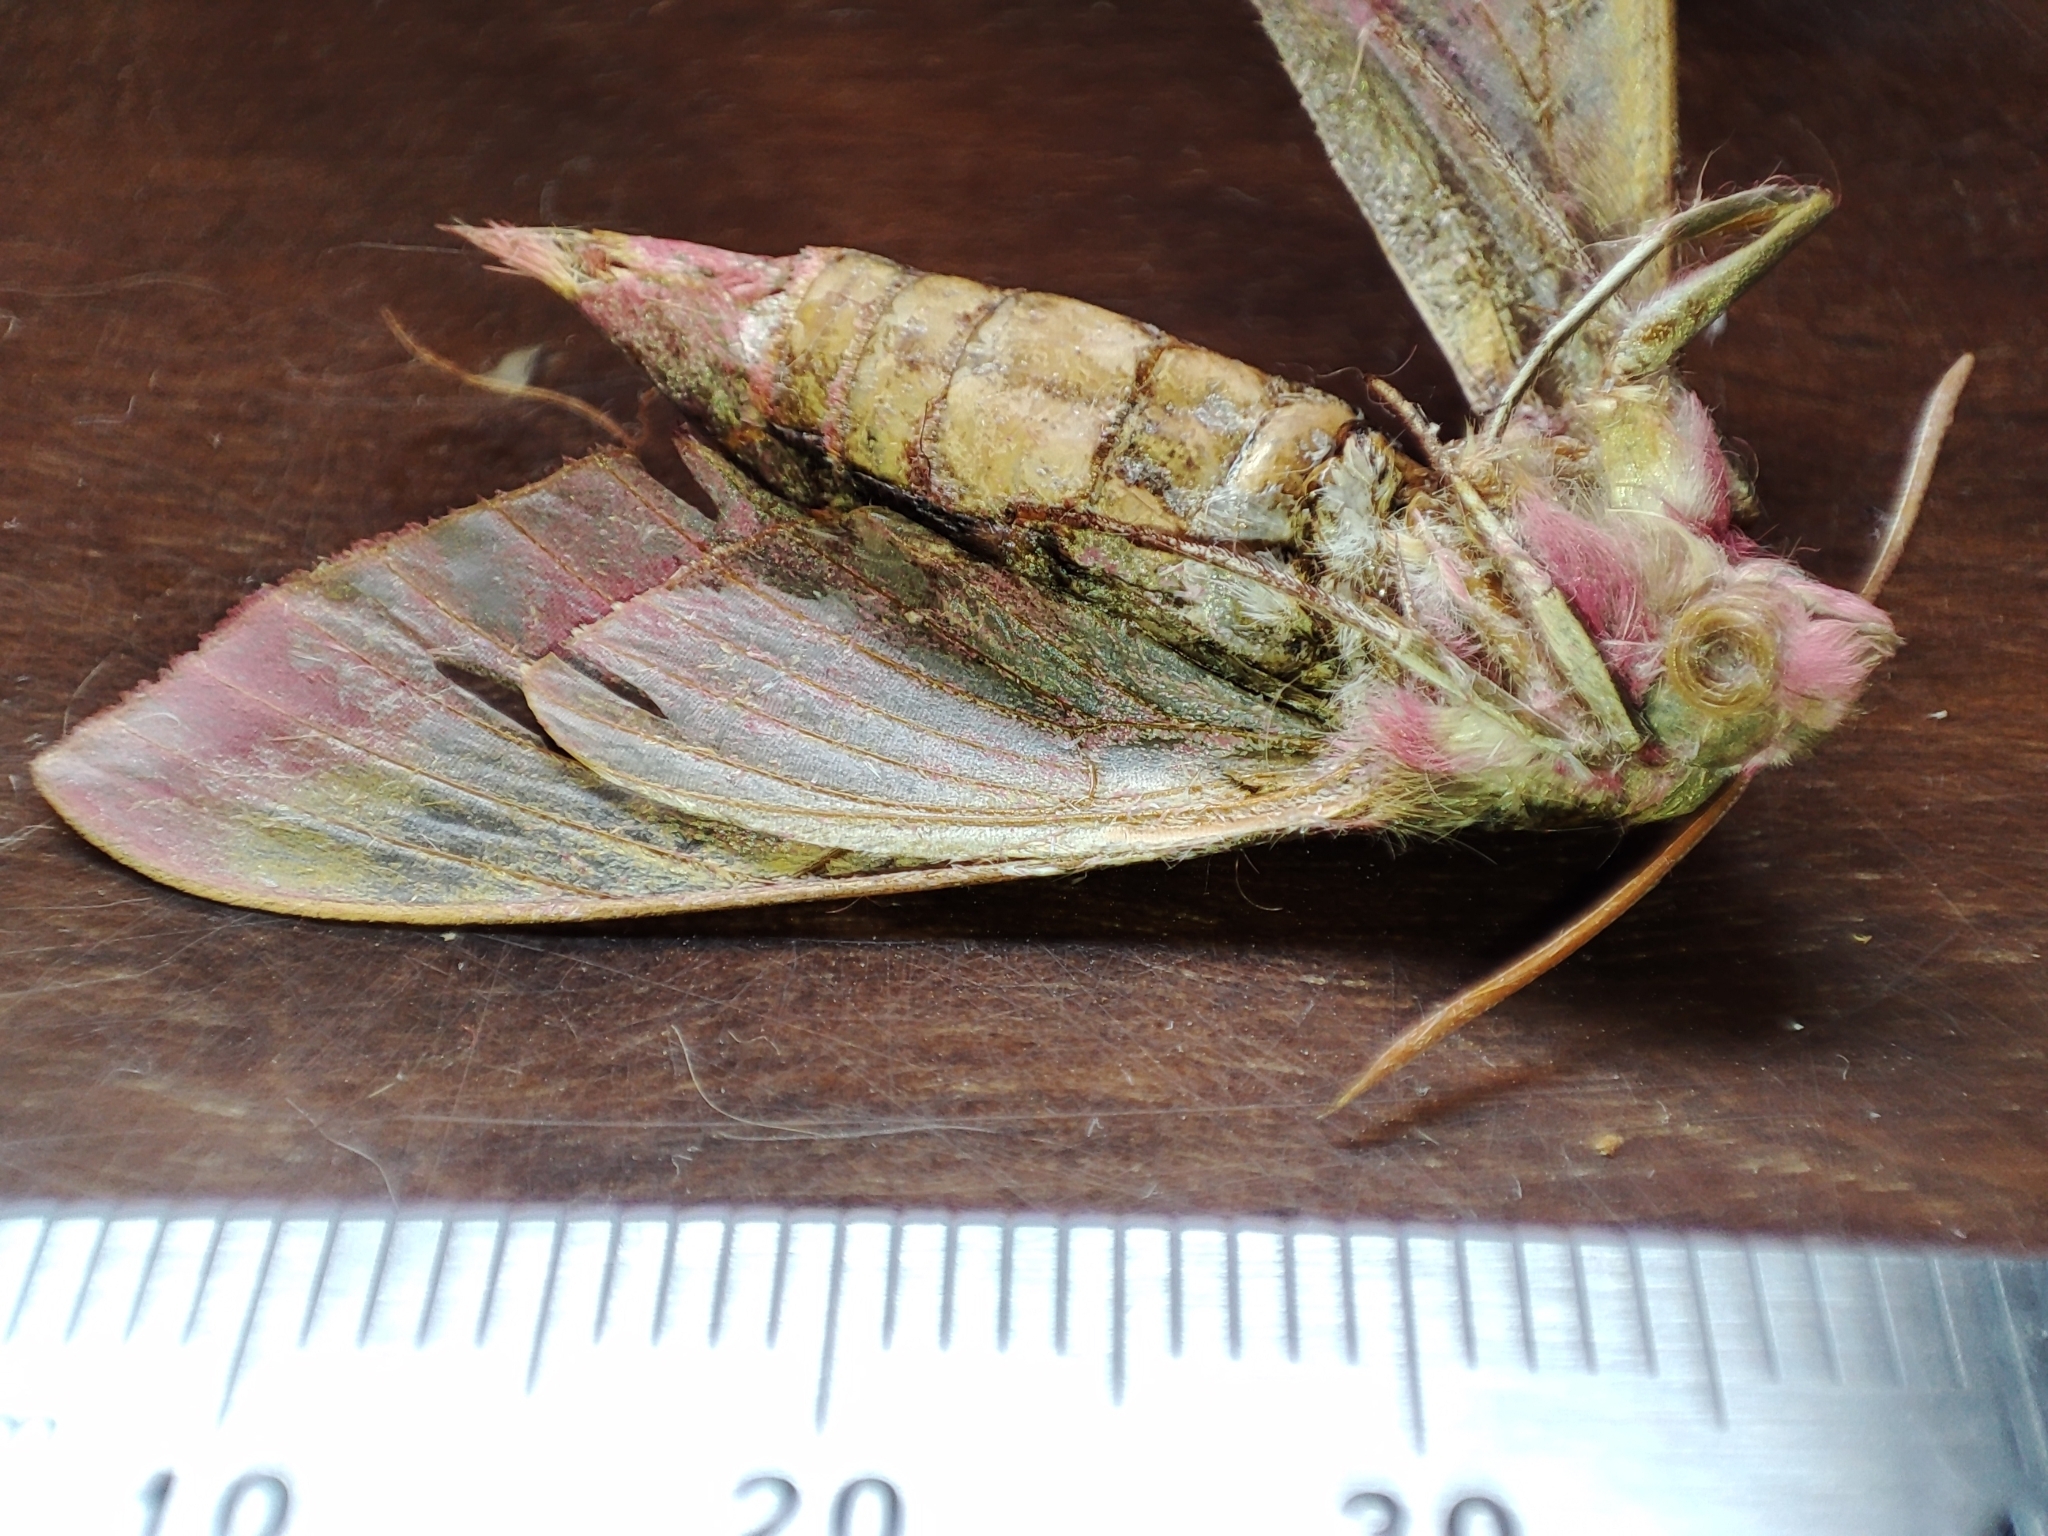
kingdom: Animalia
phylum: Arthropoda
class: Insecta
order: Lepidoptera
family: Sphingidae
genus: Deilephila
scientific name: Deilephila elpenor
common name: Elephant hawk-moth
